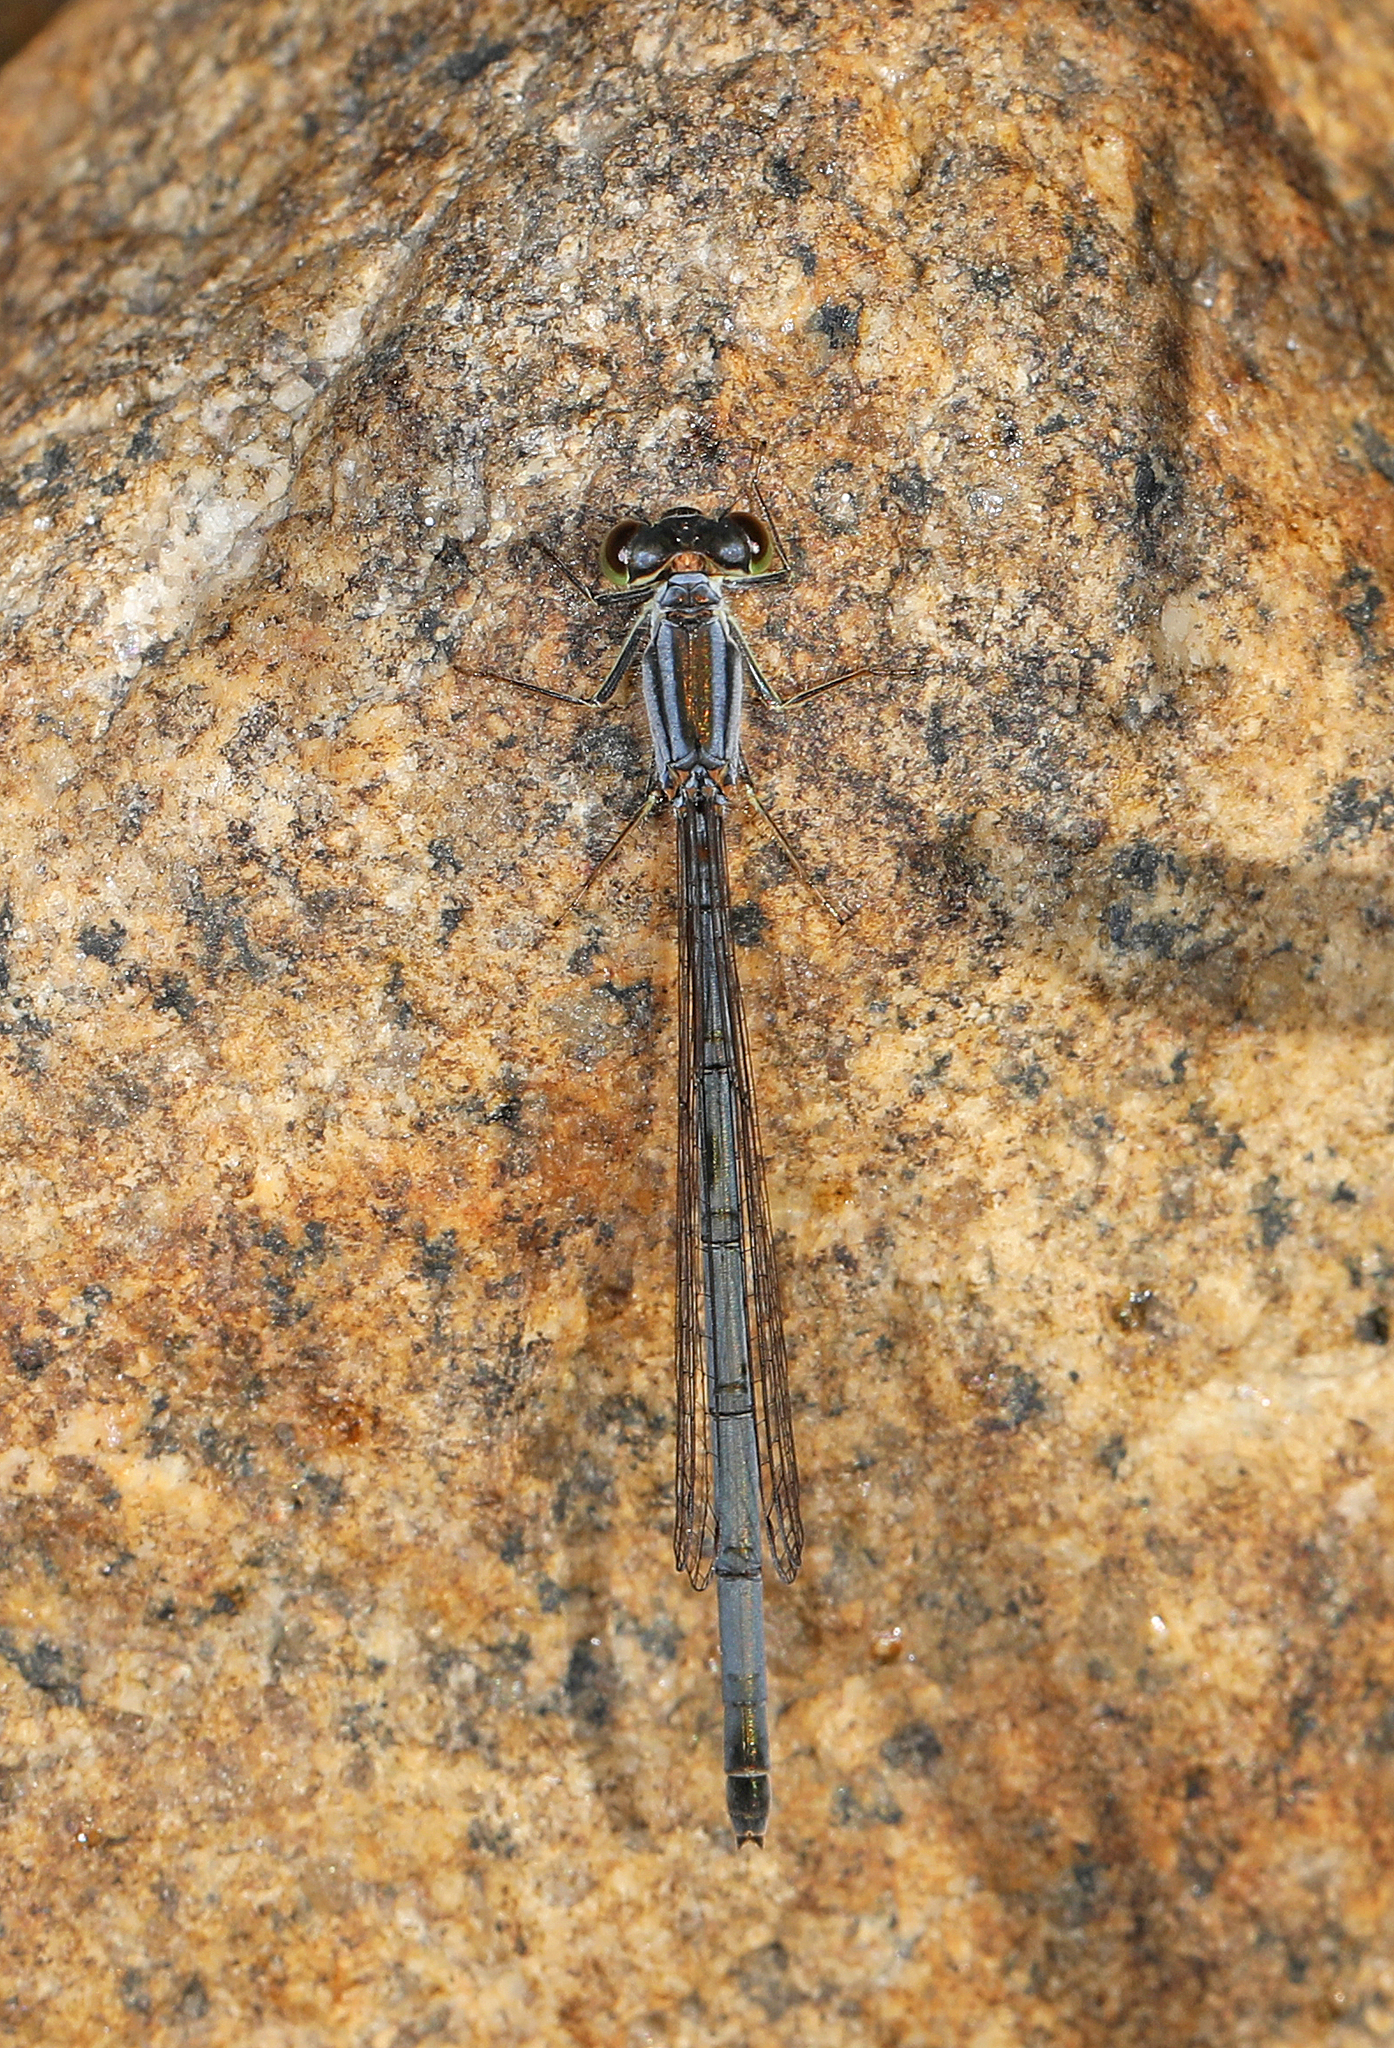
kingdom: Animalia
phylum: Arthropoda
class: Insecta
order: Odonata
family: Coenagrionidae
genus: Ischnura
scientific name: Ischnura verticalis
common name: Eastern forktail
